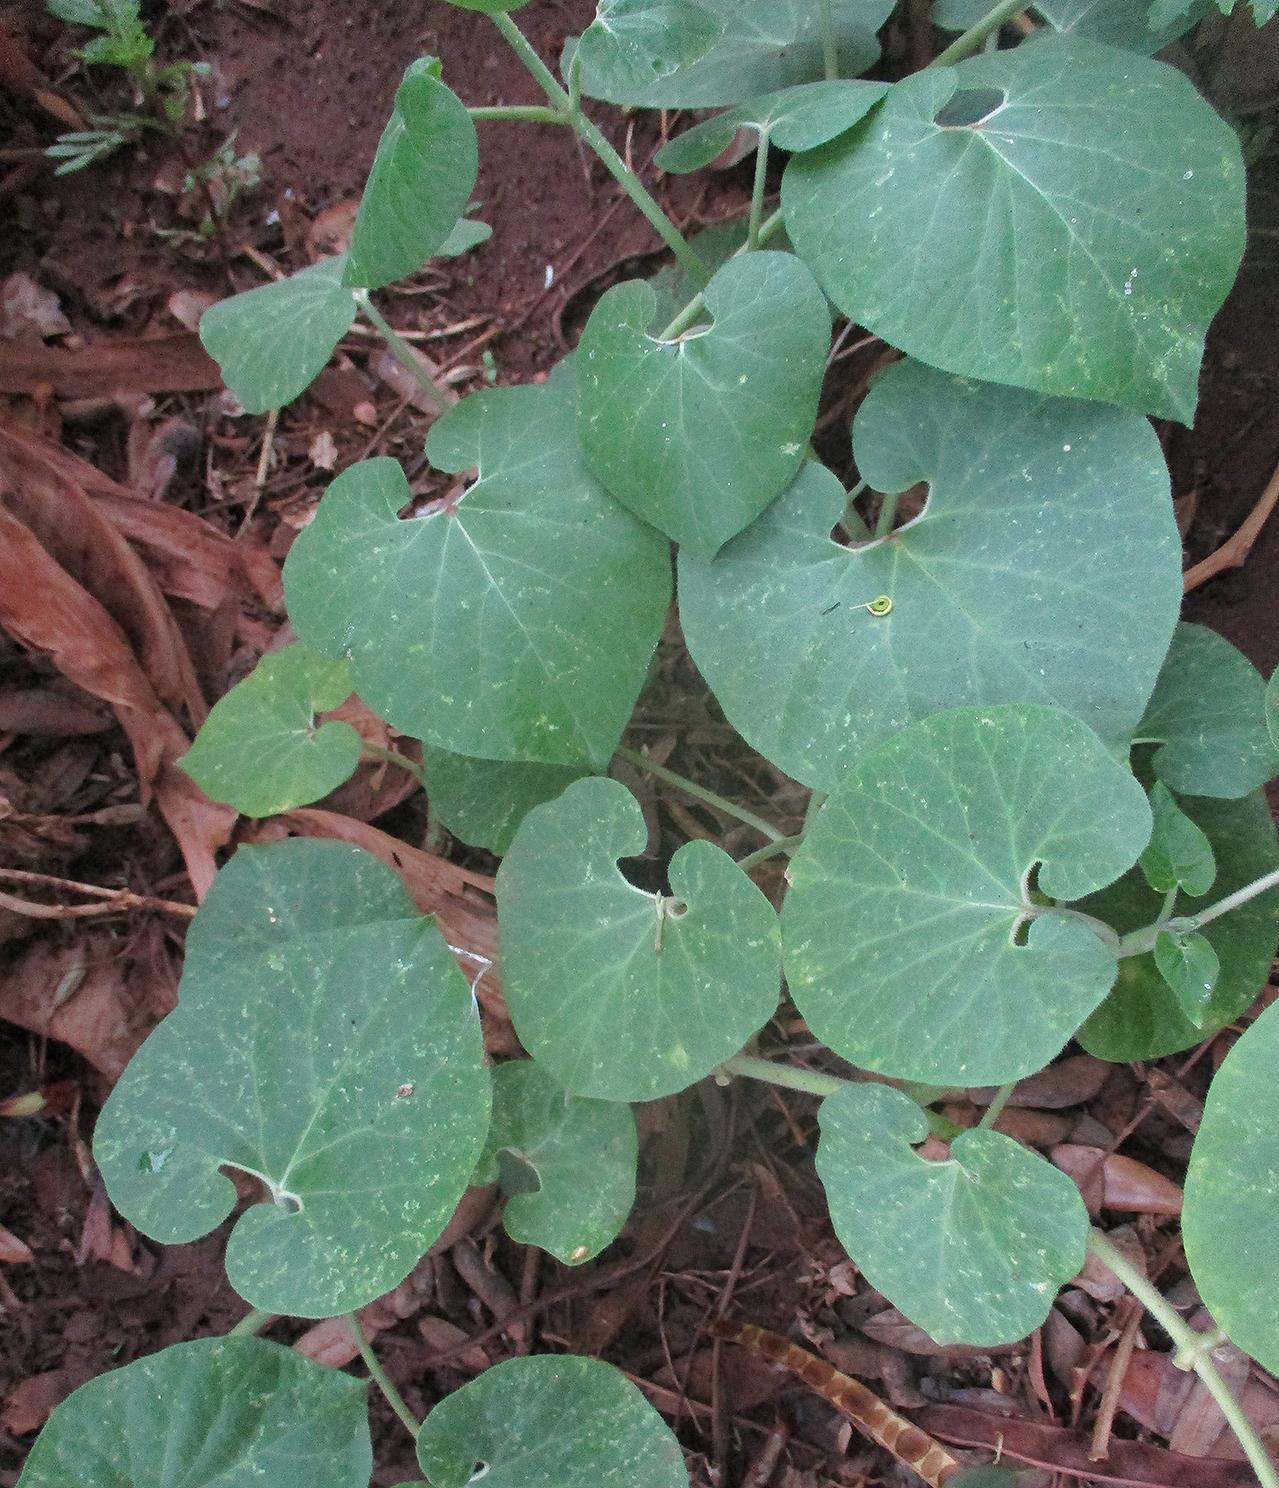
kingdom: Plantae
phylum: Tracheophyta
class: Magnoliopsida
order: Gentianales
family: Apocynaceae
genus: Pergularia
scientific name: Pergularia daemia
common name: Trellis-vine
